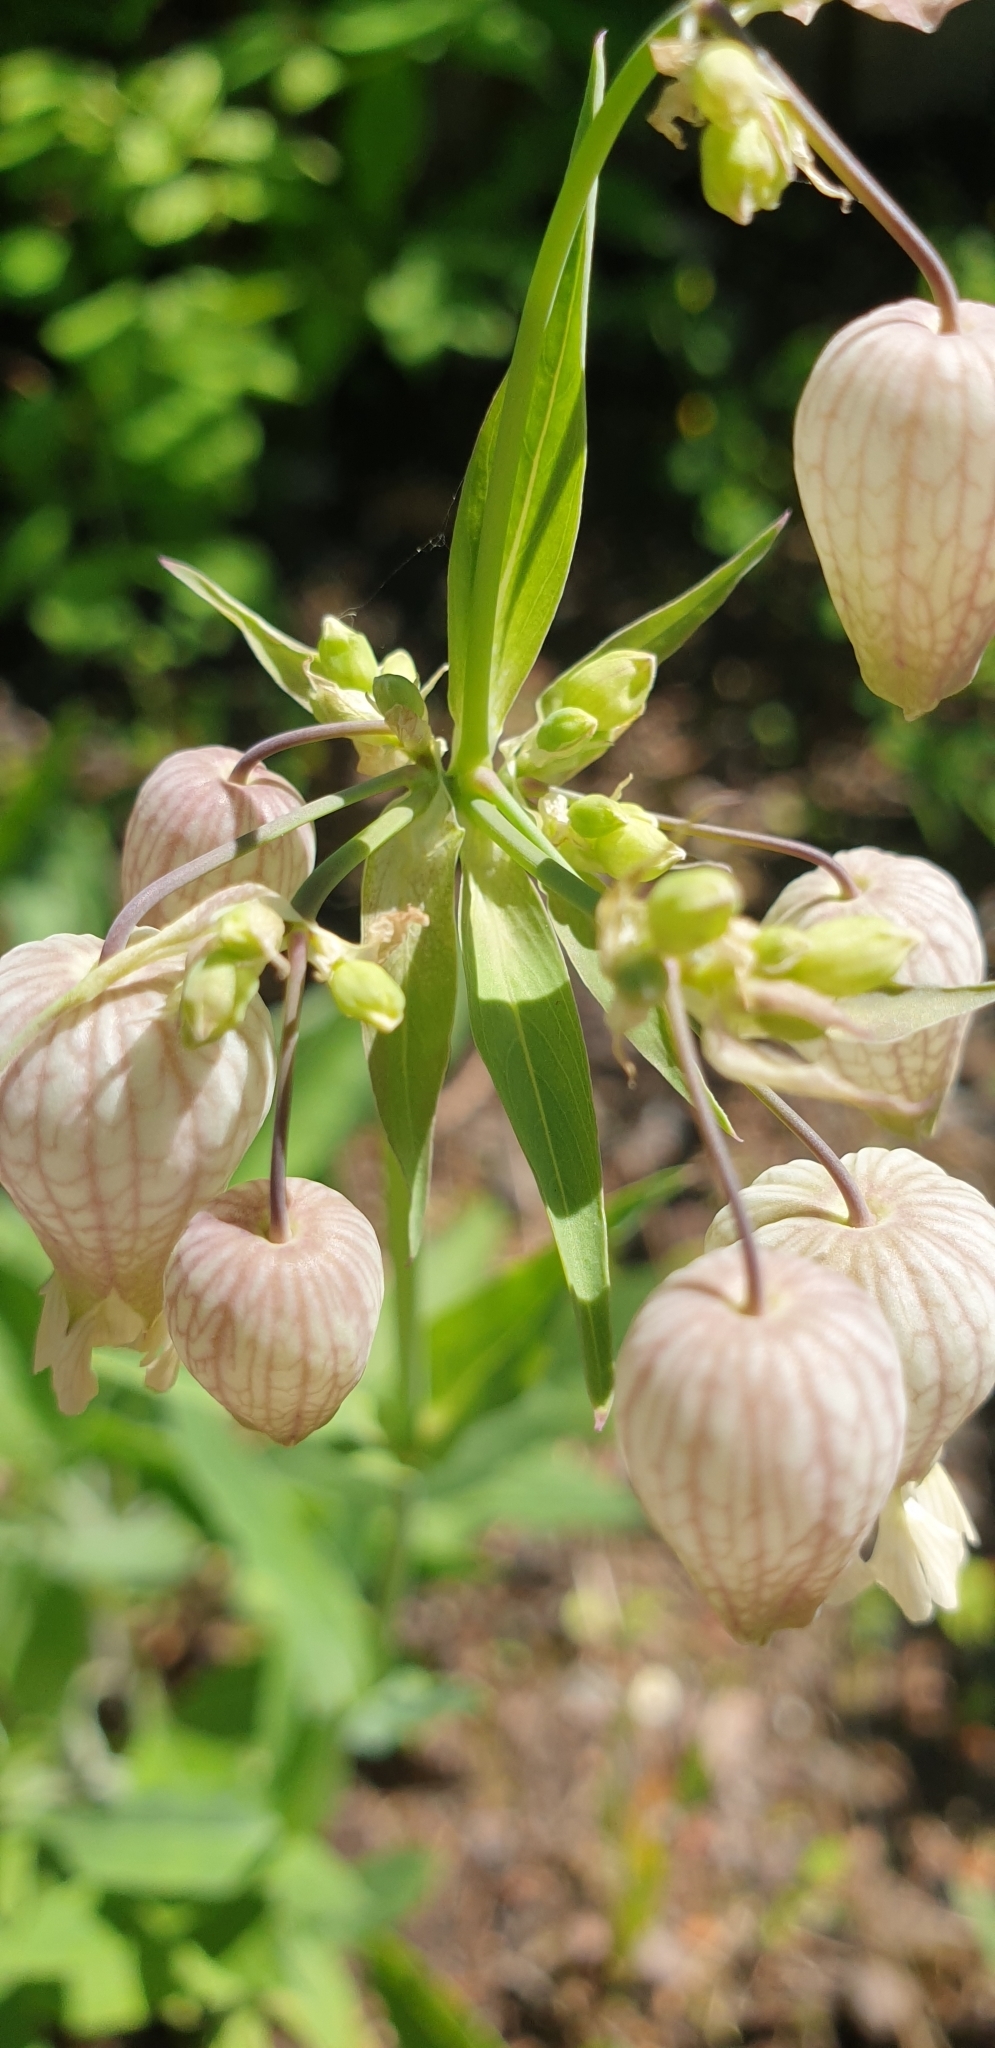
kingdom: Plantae
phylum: Tracheophyta
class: Magnoliopsida
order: Caryophyllales
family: Caryophyllaceae
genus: Silene
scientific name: Silene vulgaris
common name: Bladder campion
